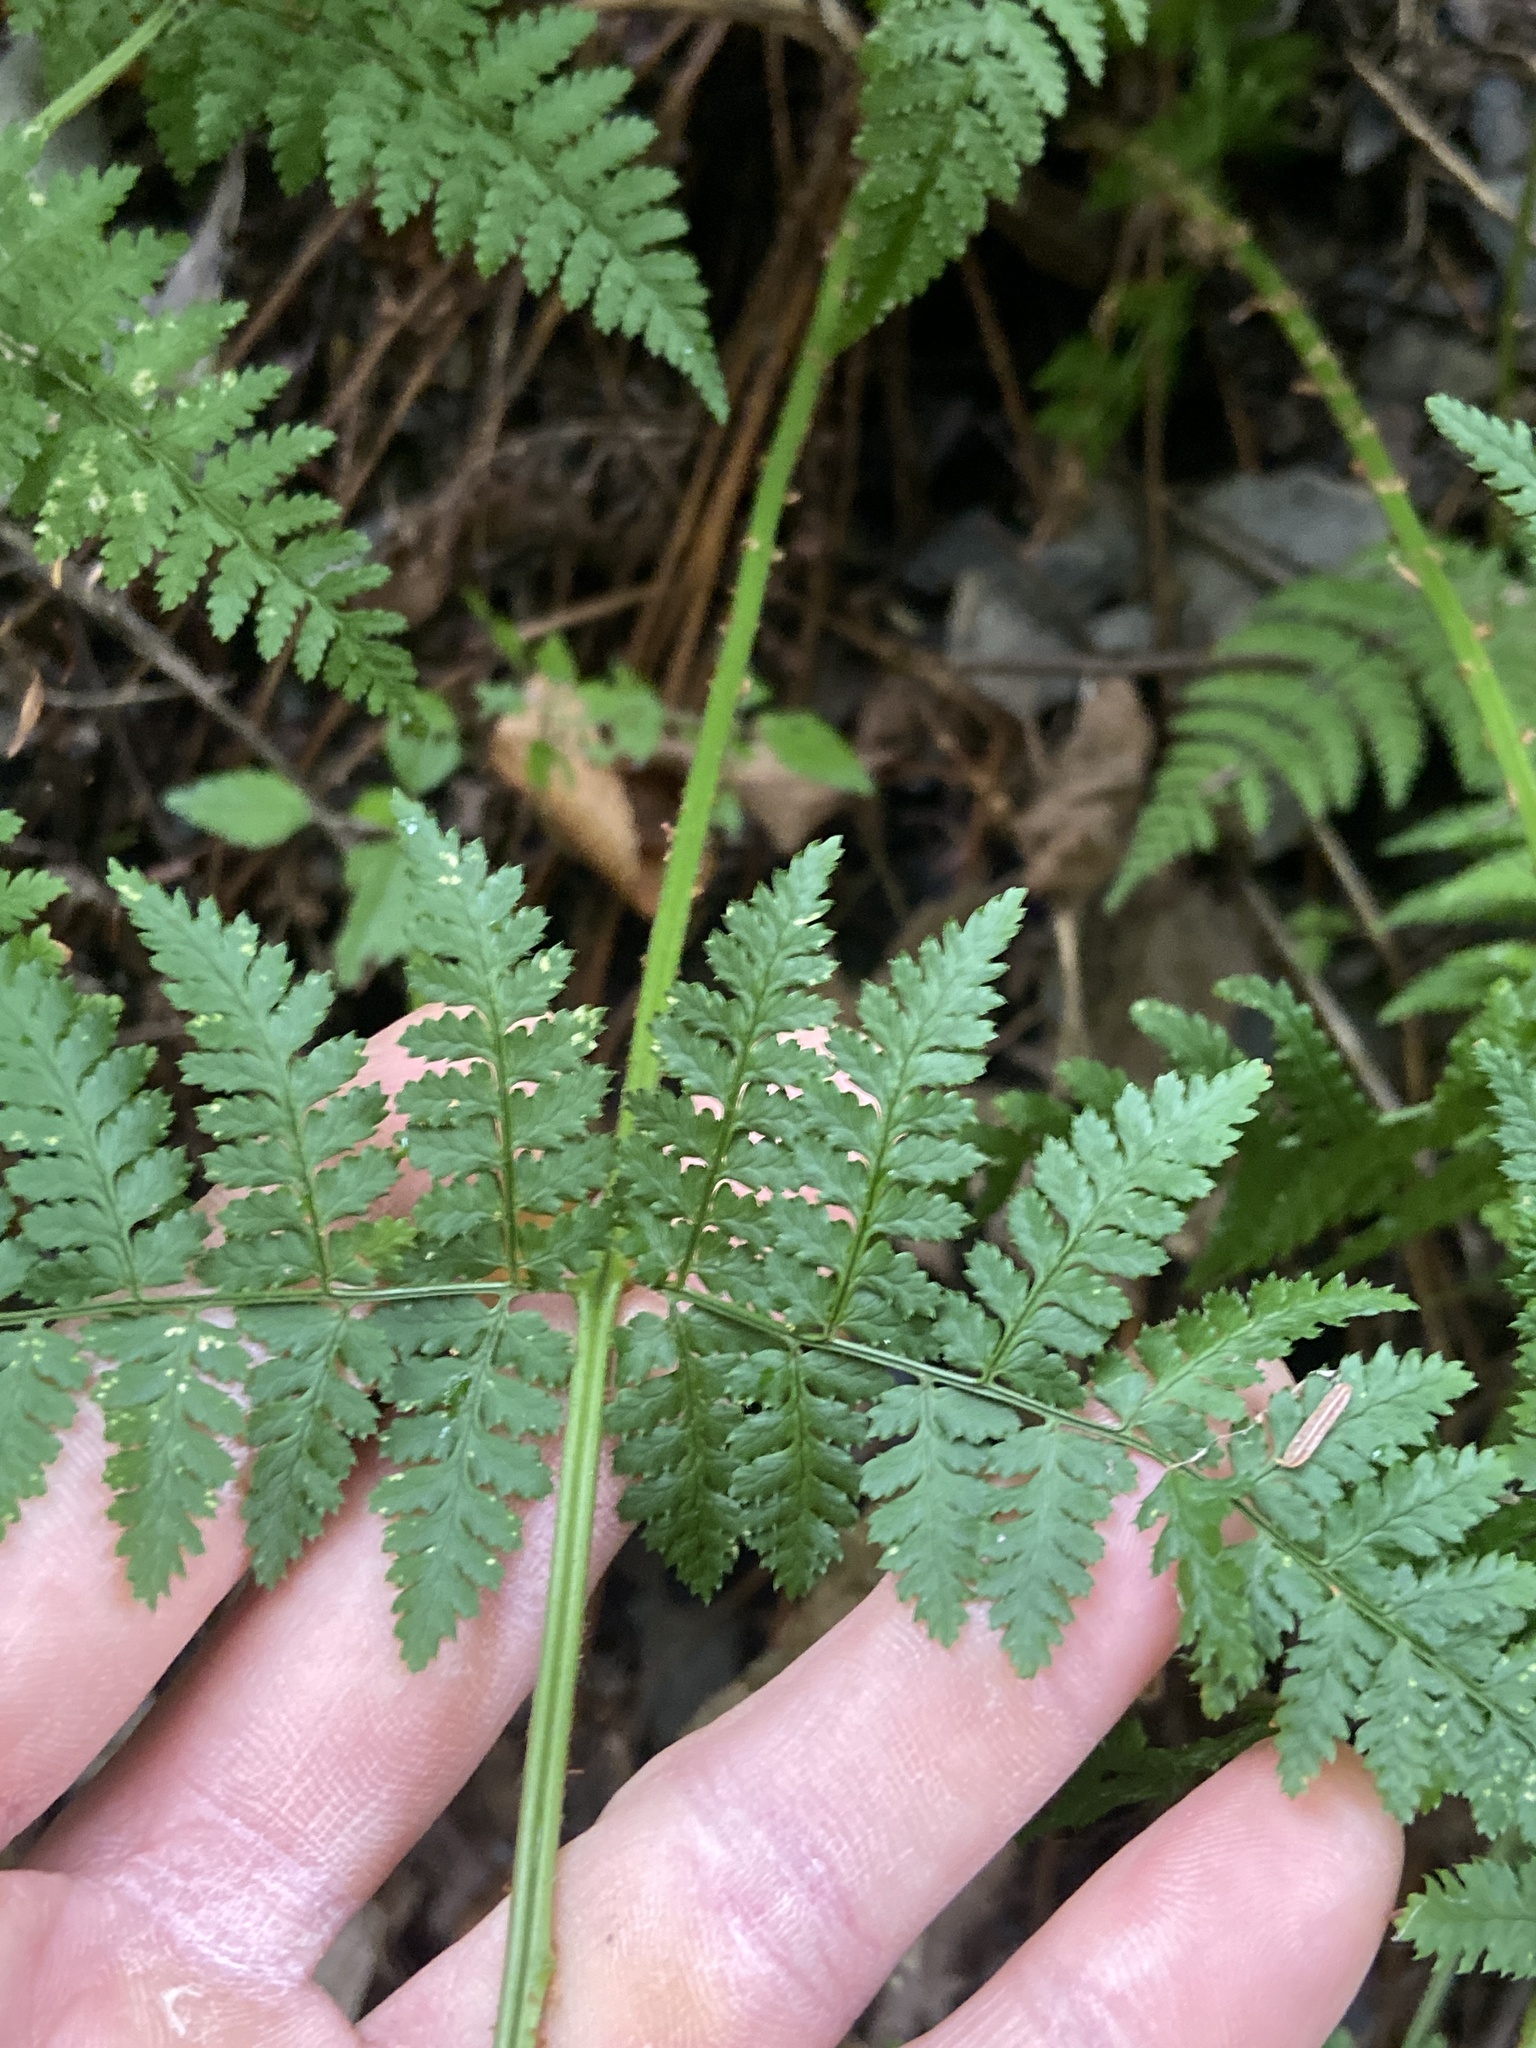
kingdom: Plantae
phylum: Tracheophyta
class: Polypodiopsida
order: Polypodiales
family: Dryopteridaceae
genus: Dryopteris
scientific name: Dryopteris intermedia
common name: Evergreen wood fern
